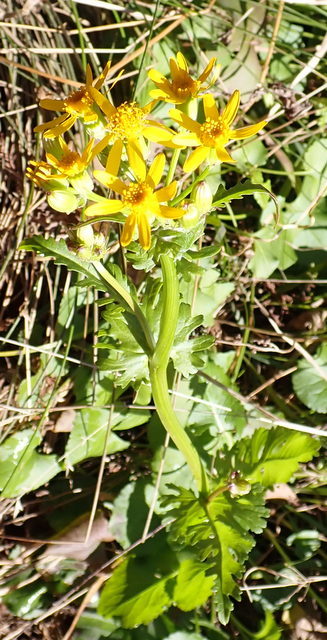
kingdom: Plantae
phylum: Tracheophyta
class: Magnoliopsida
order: Asterales
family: Asteraceae
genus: Packera
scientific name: Packera glabella
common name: Butterweed
